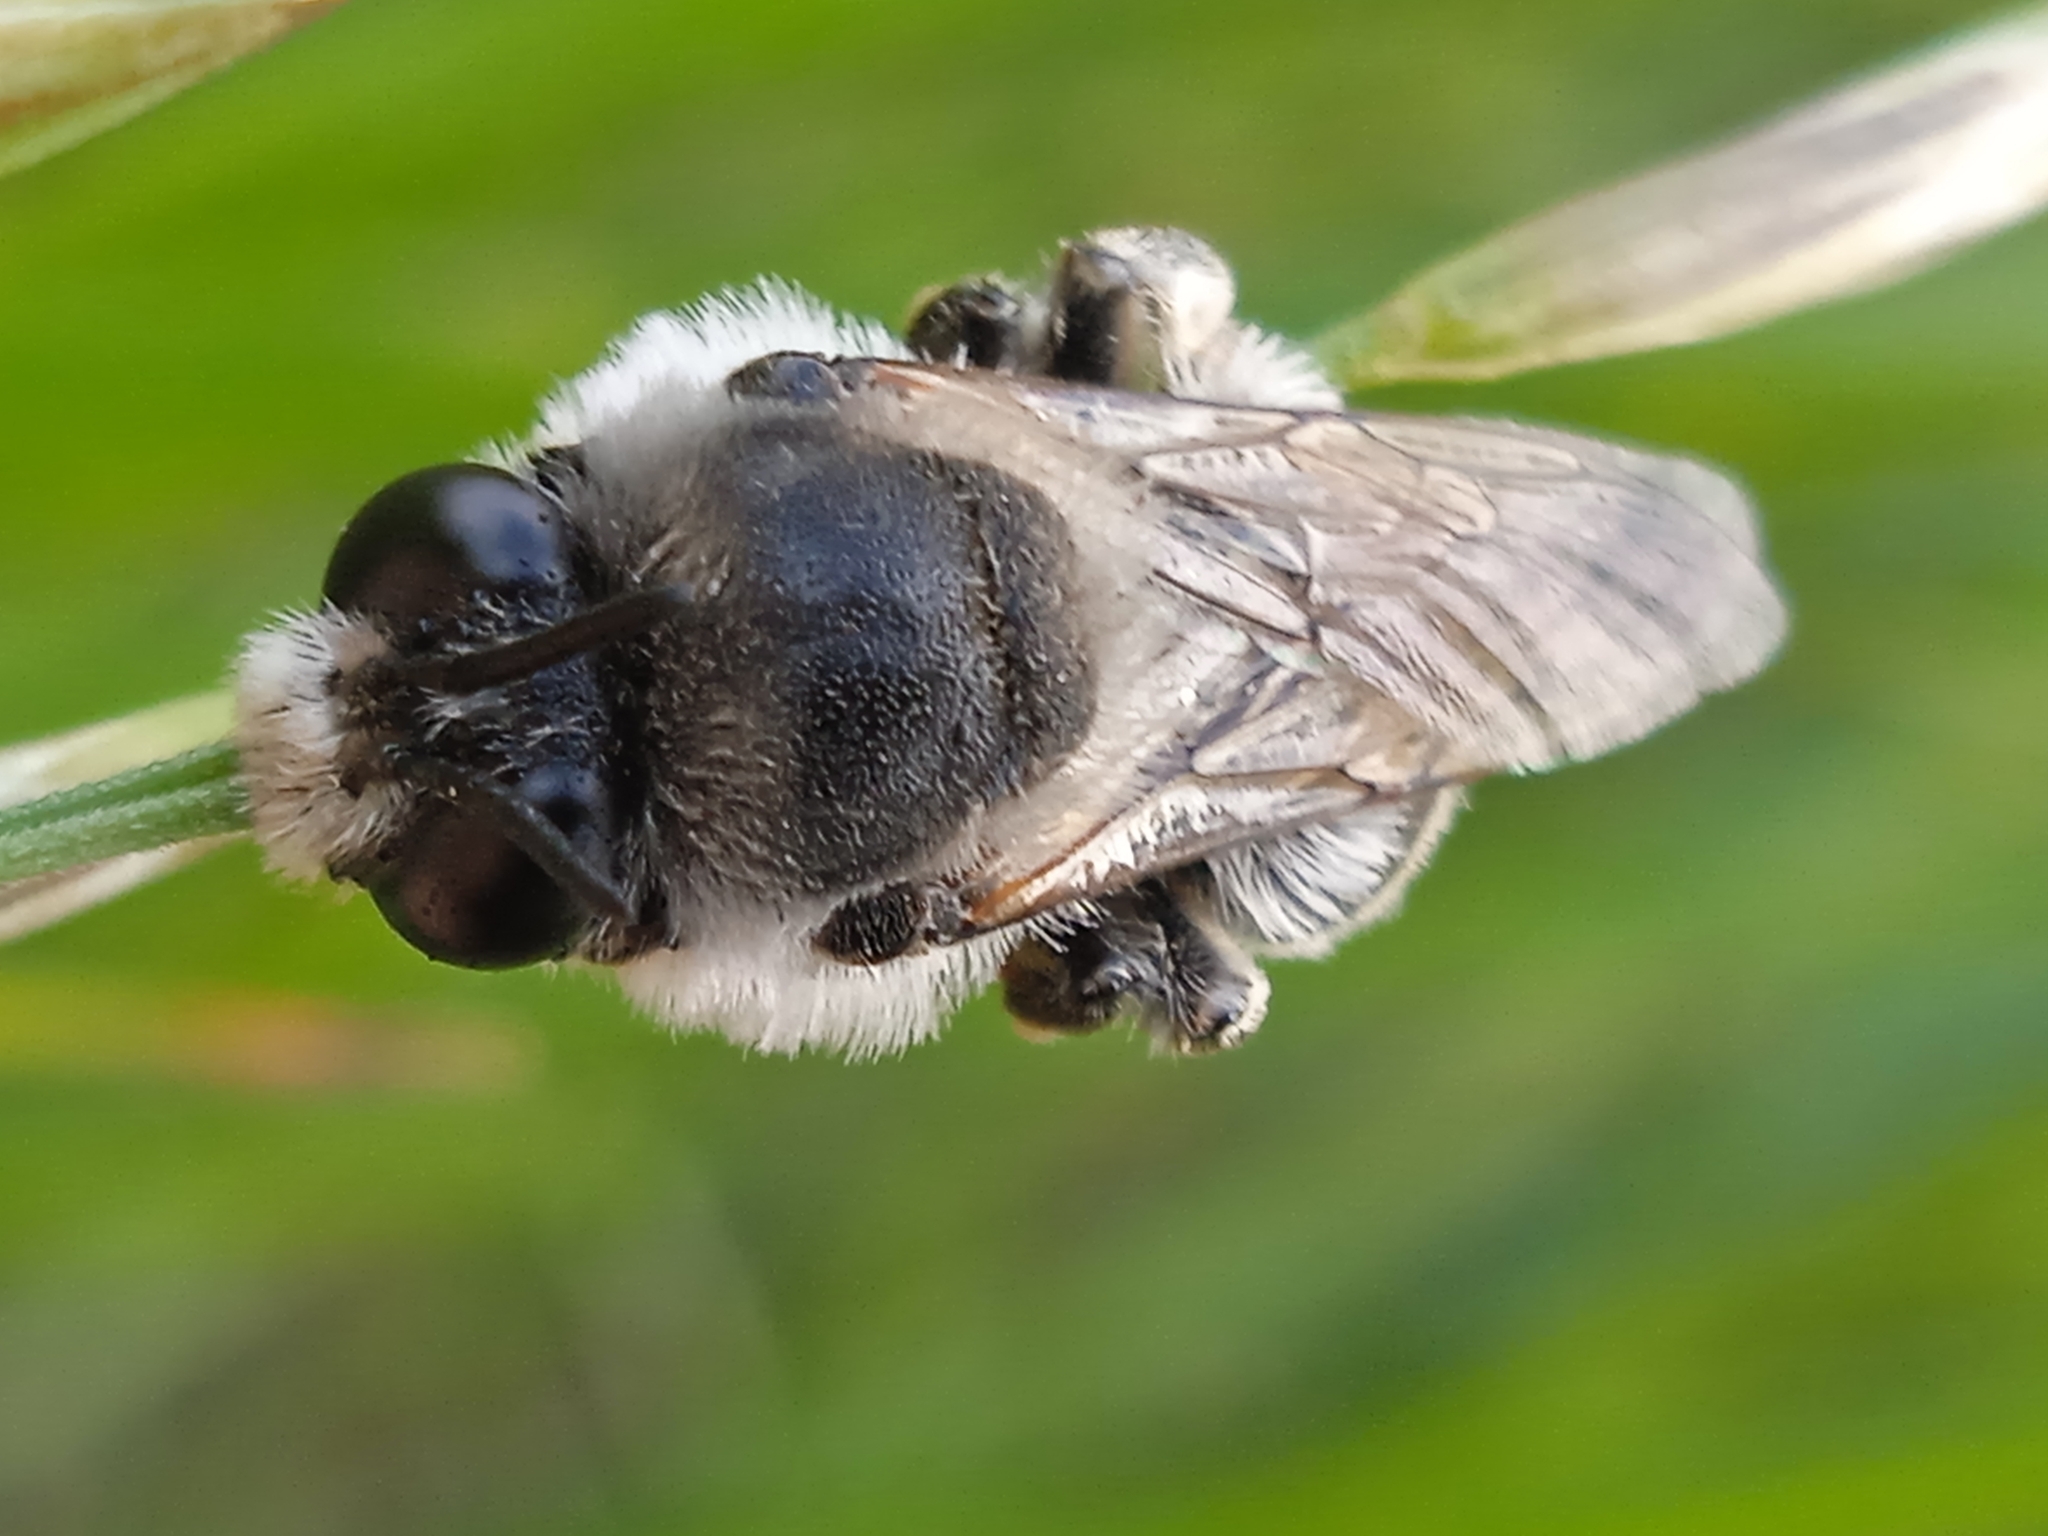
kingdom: Animalia
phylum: Arthropoda
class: Insecta
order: Hymenoptera
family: Apidae
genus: Ammobatoides
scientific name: Ammobatoides abdominalis
